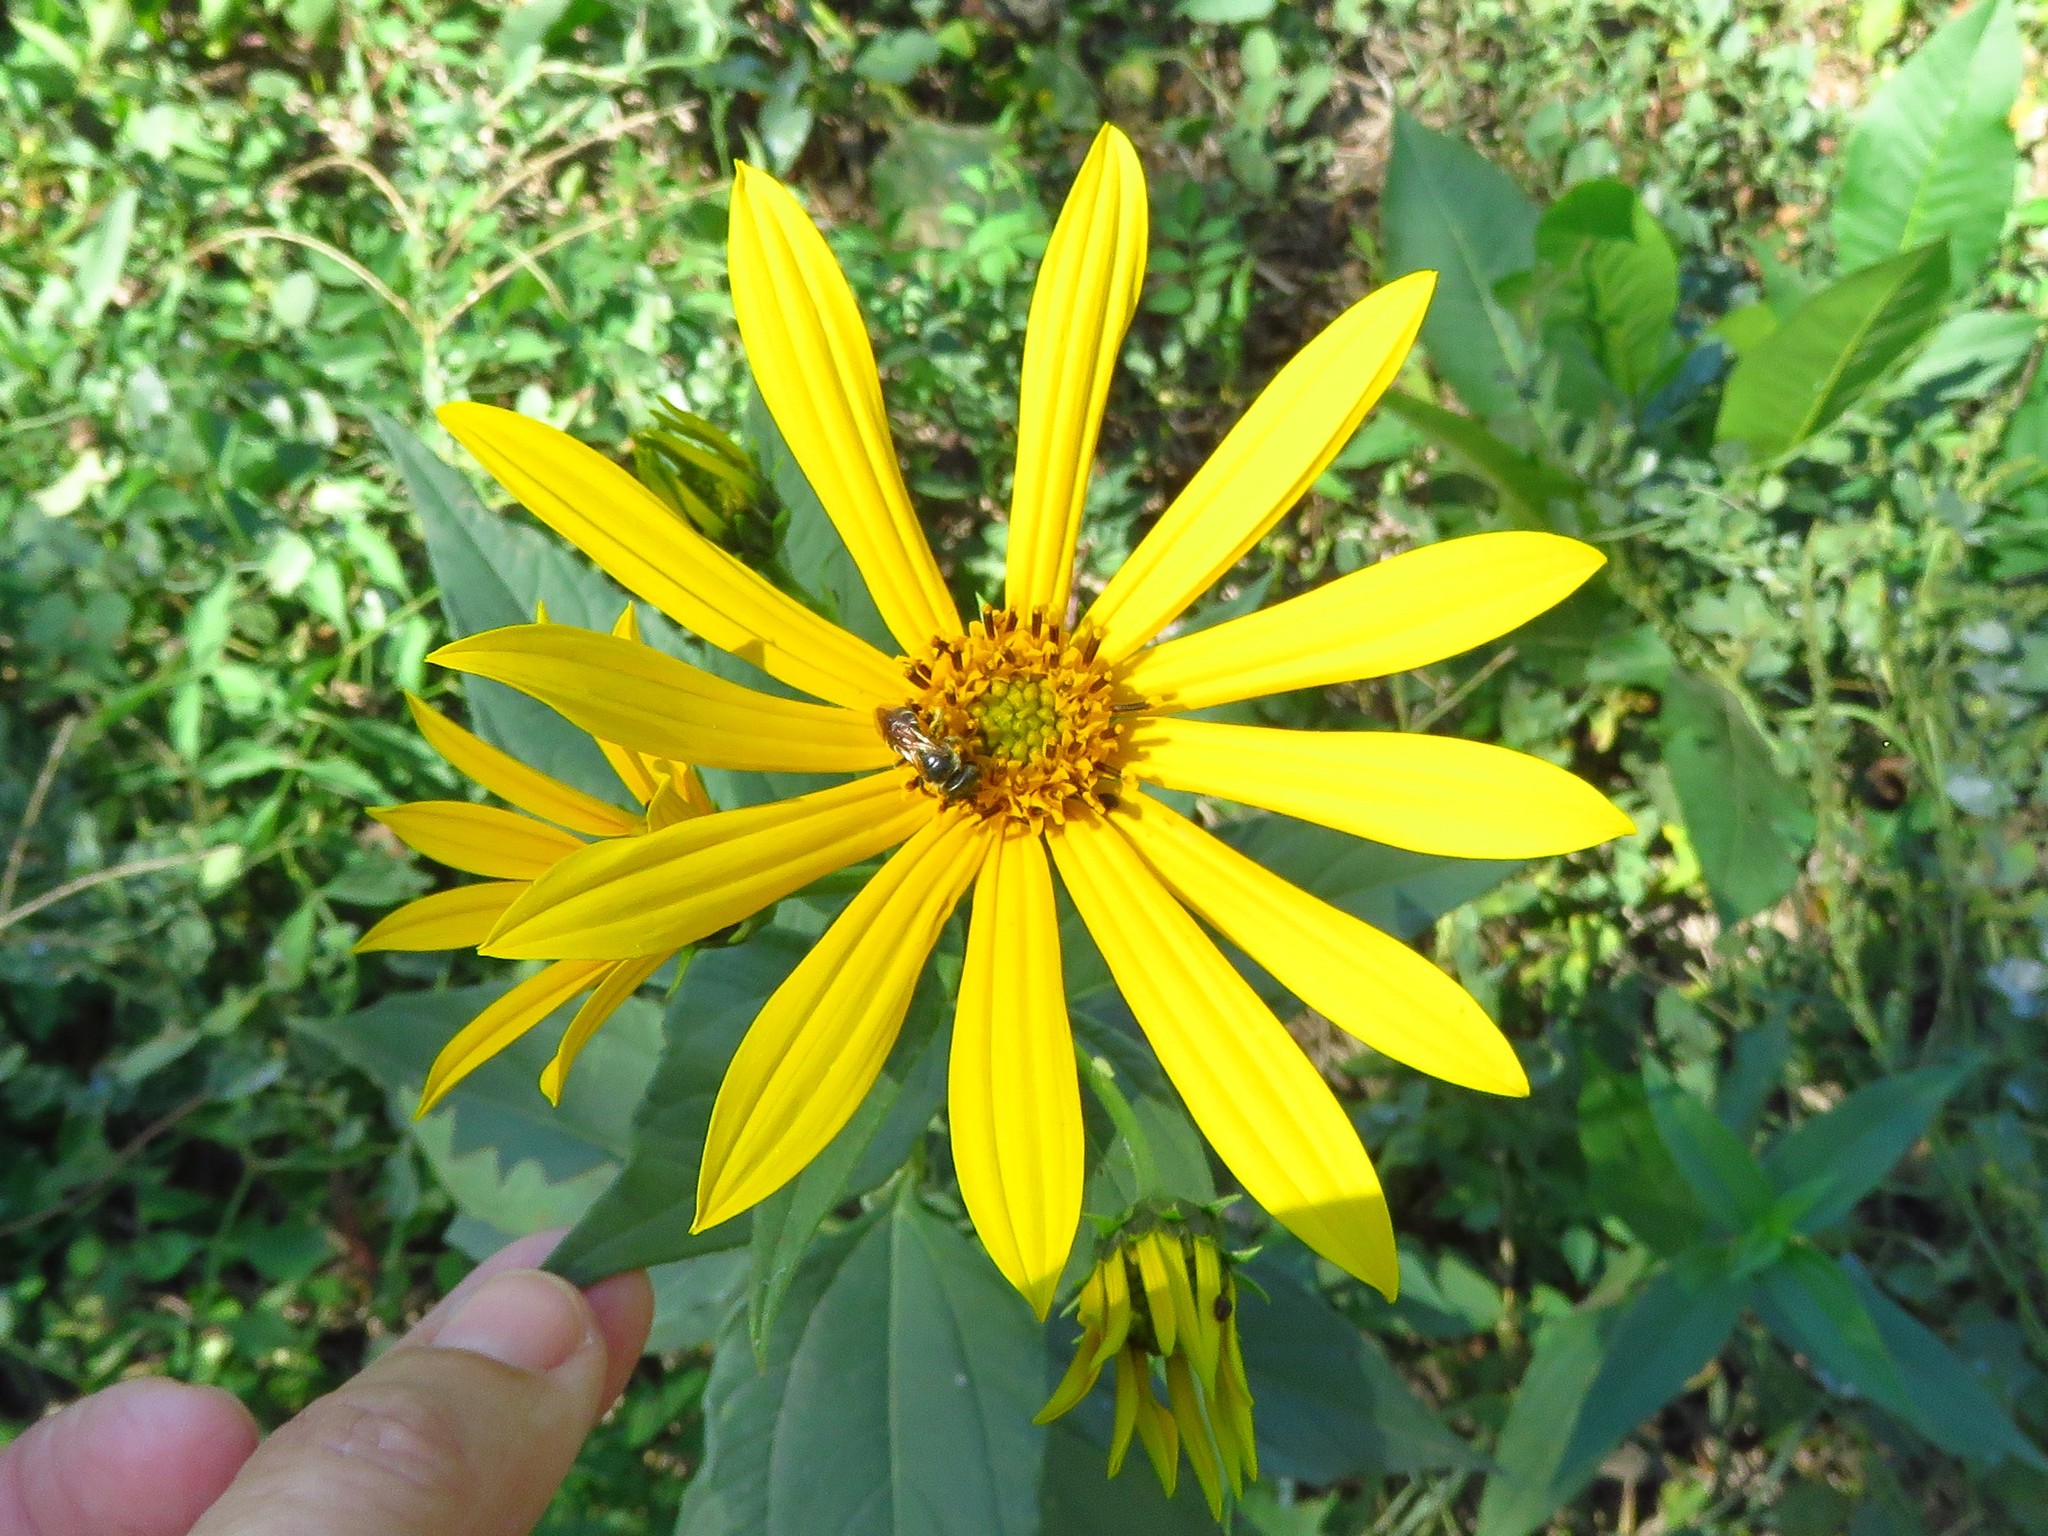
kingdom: Plantae
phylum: Tracheophyta
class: Magnoliopsida
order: Asterales
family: Asteraceae
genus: Helianthus
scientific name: Helianthus tuberosus
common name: Jerusalem artichoke
